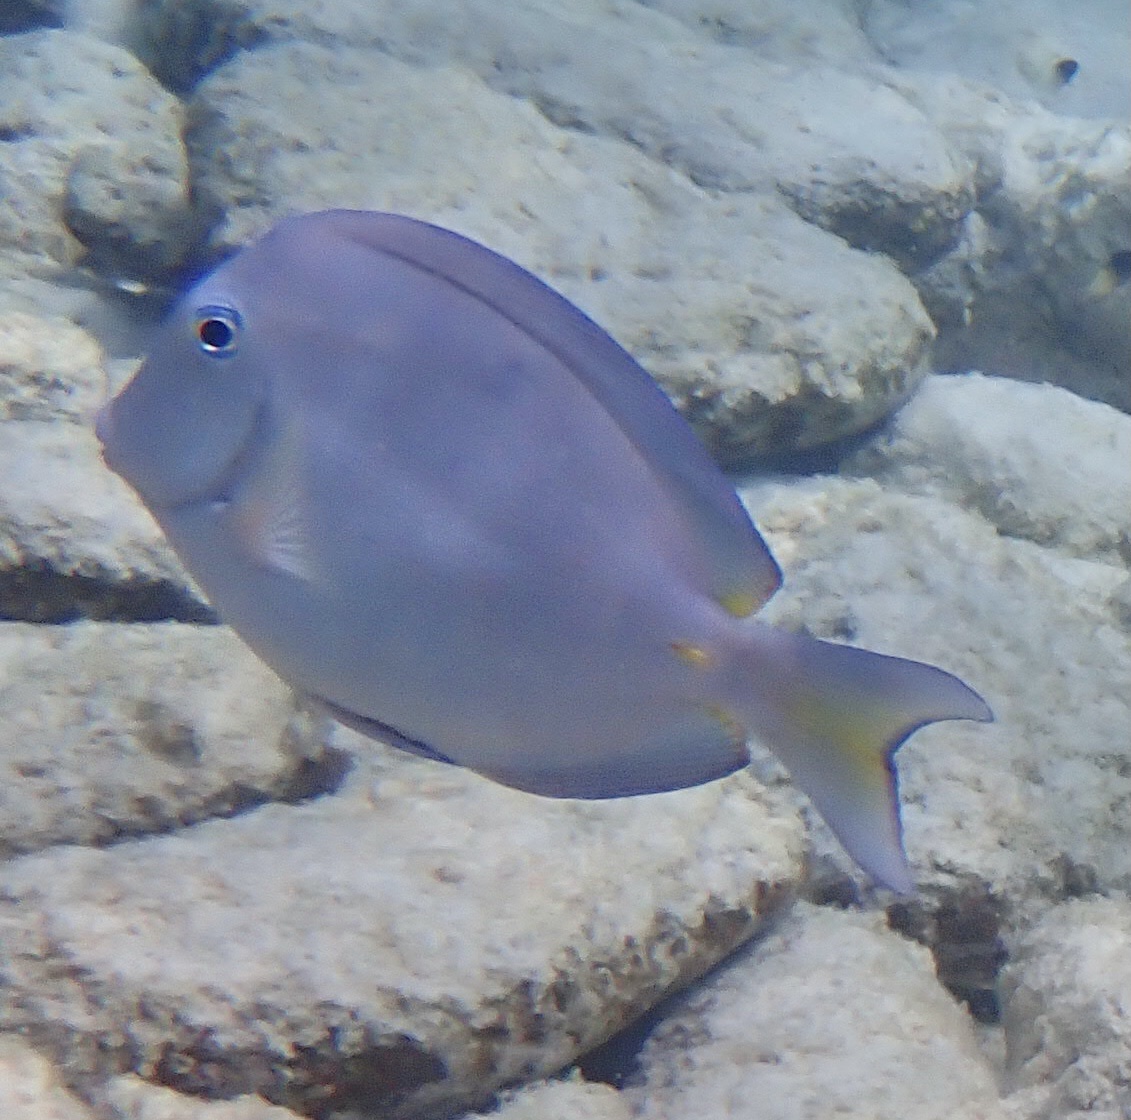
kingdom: Animalia
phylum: Chordata
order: Perciformes
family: Acanthuridae
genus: Acanthurus
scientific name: Acanthurus coeruleus
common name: Blue tang
